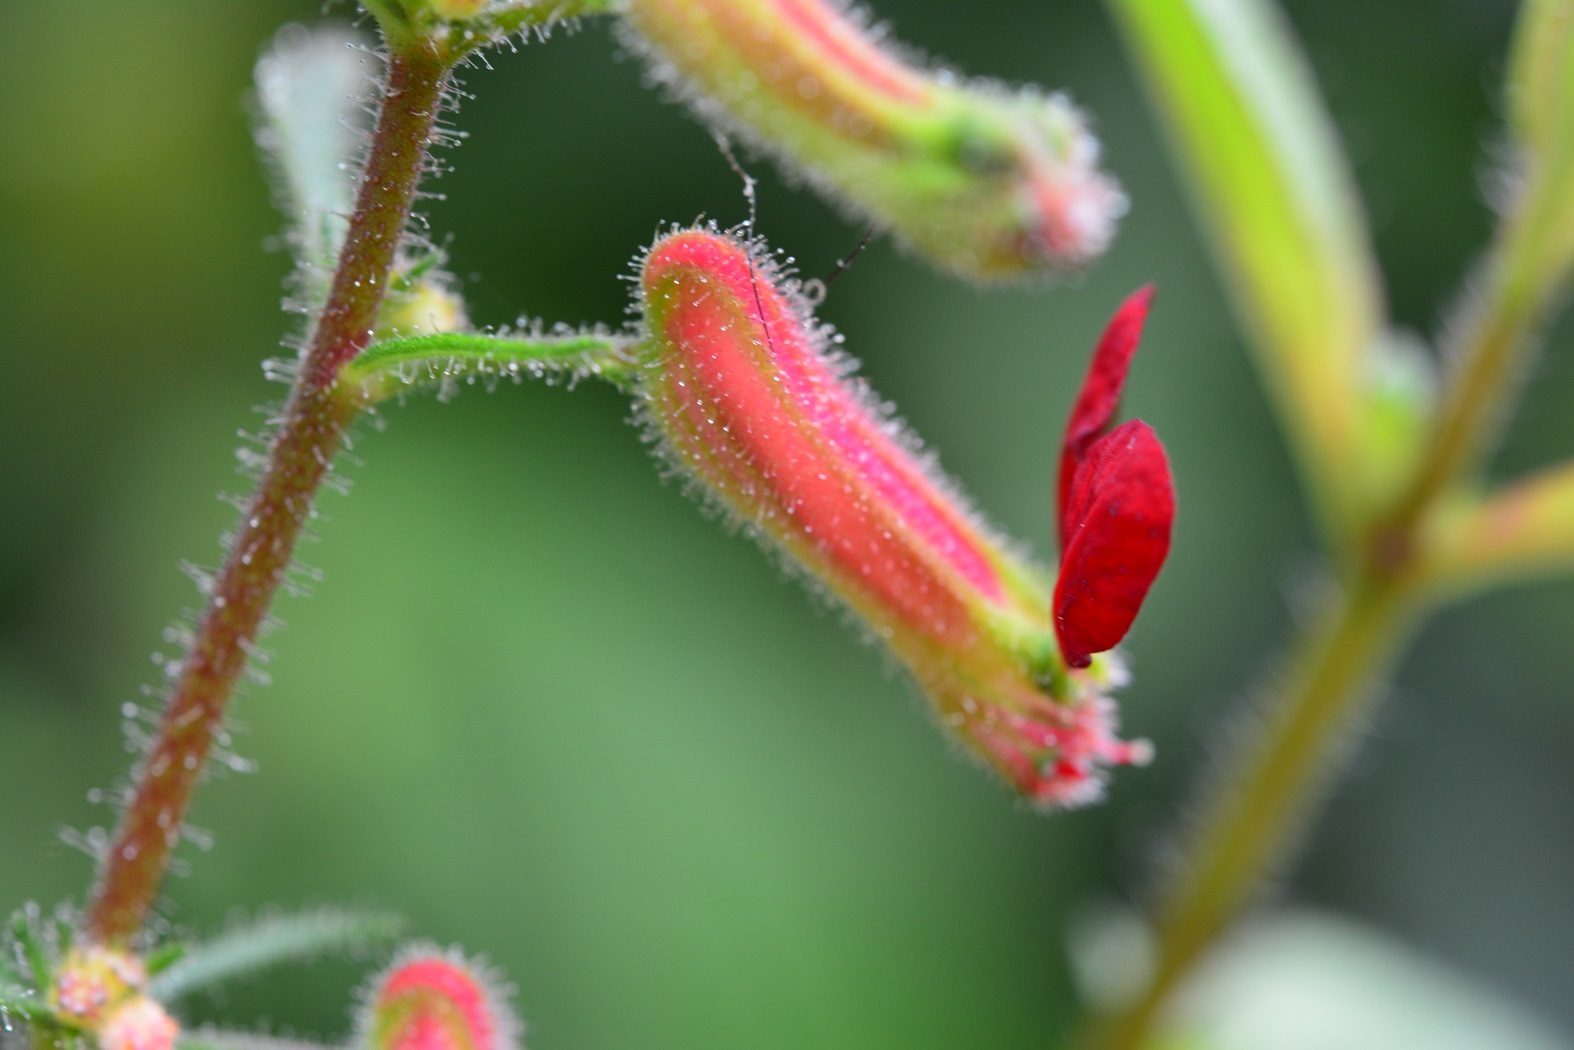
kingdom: Plantae
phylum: Tracheophyta
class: Magnoliopsida
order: Myrtales
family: Lythraceae
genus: Cuphea
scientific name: Cuphea hookeriana
